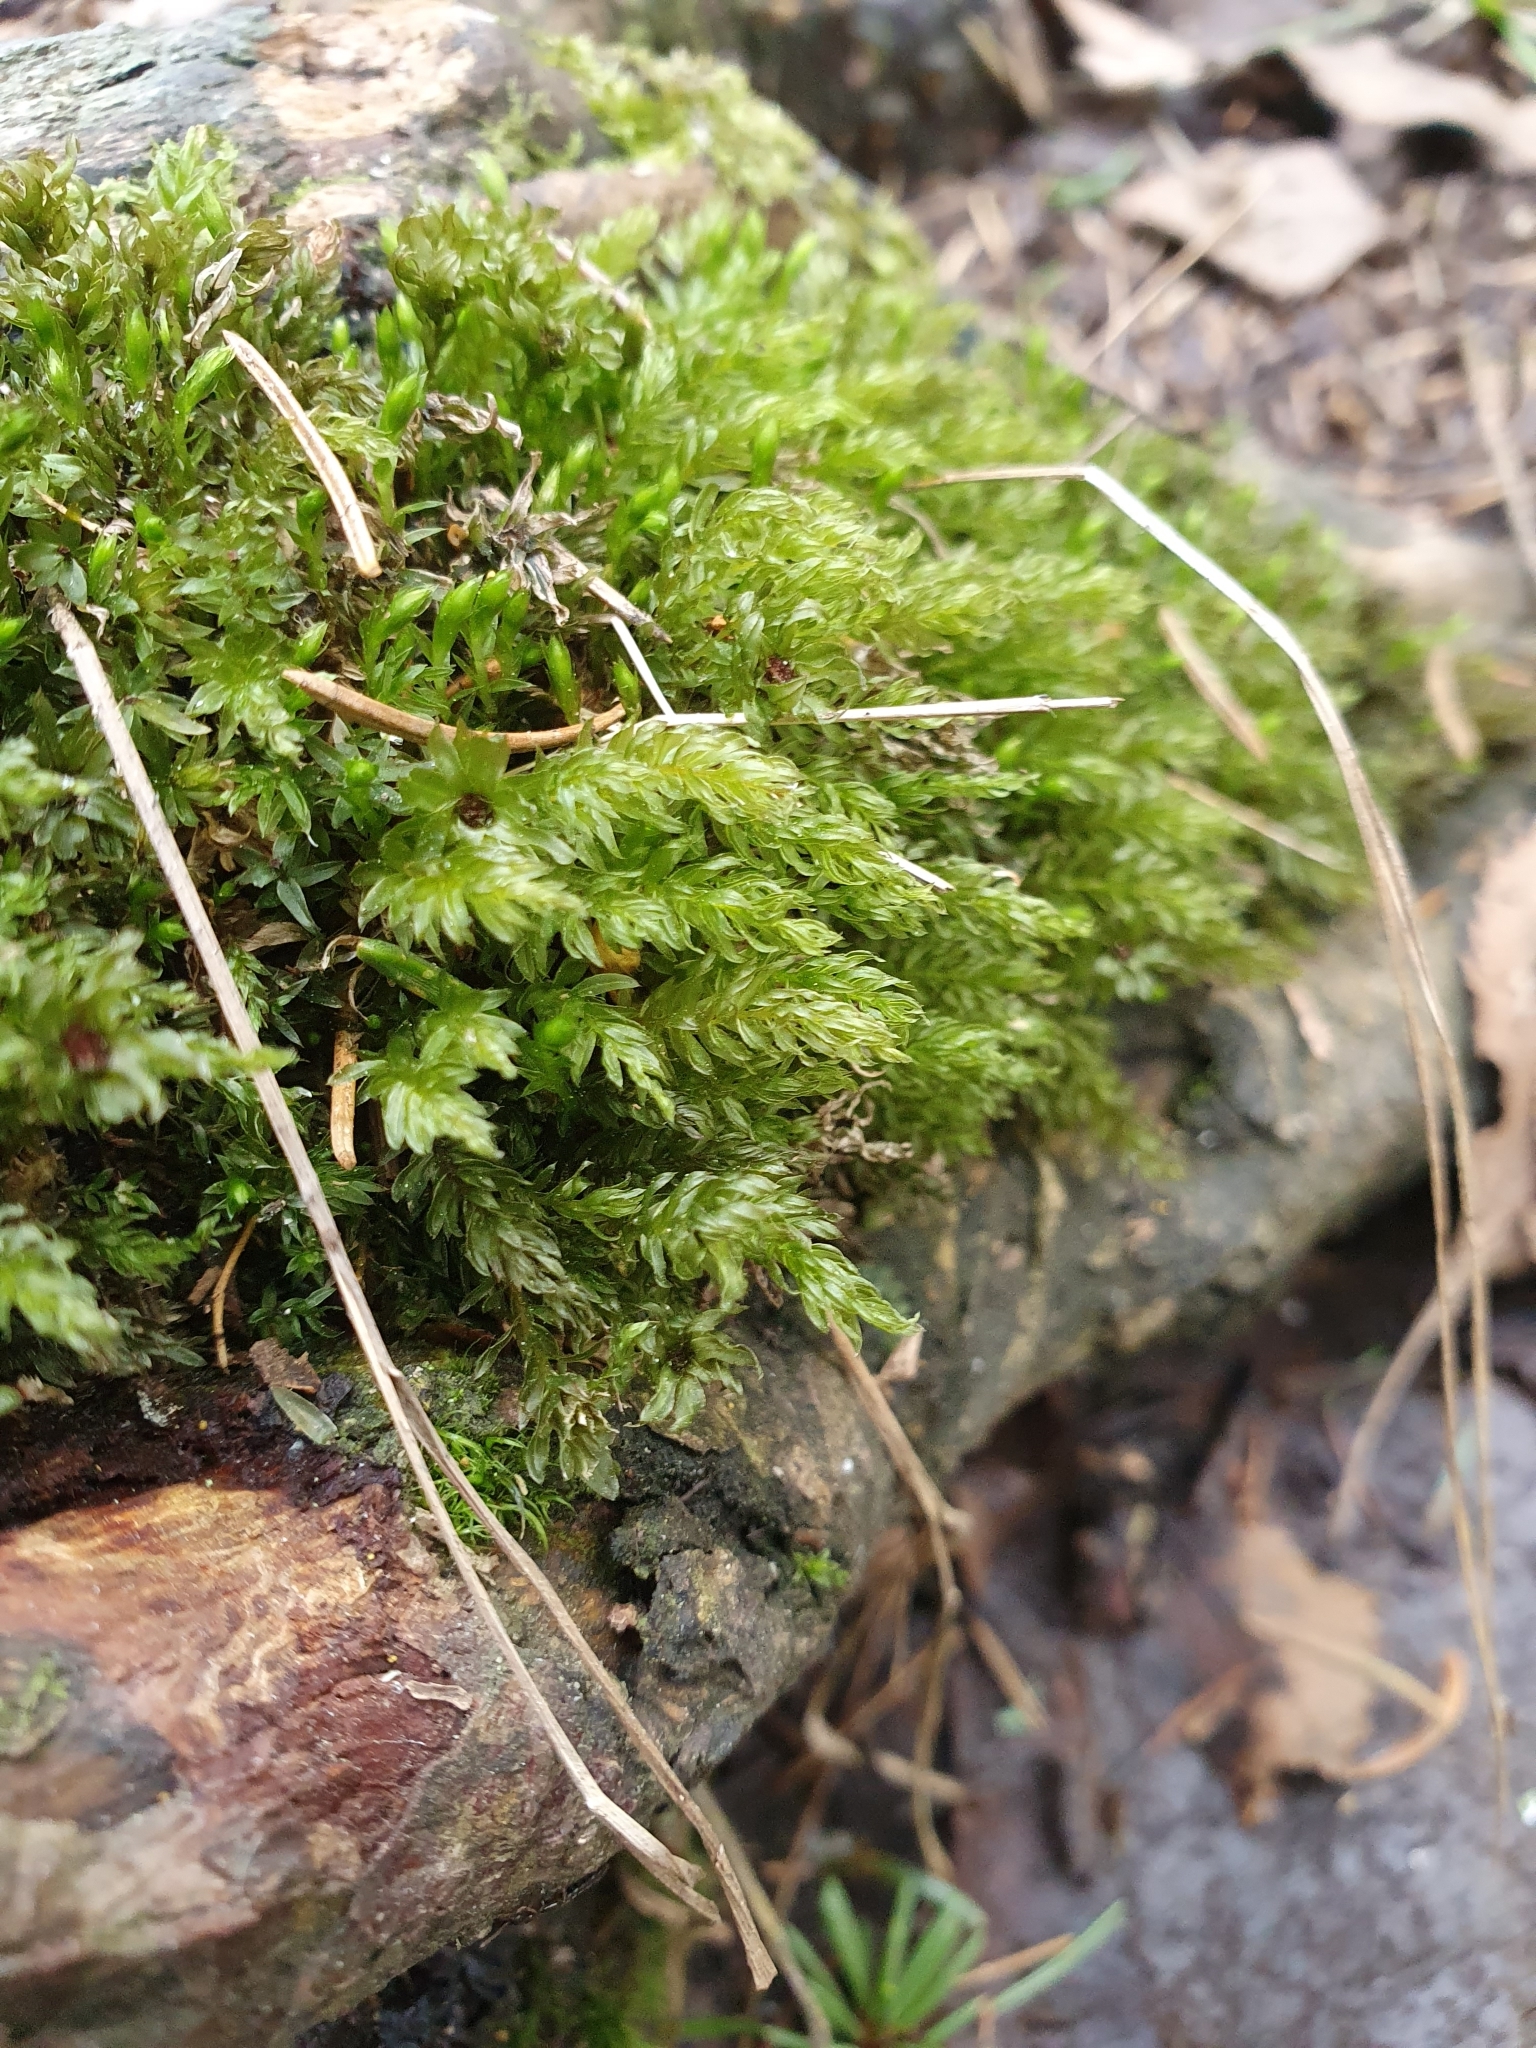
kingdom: Plantae
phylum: Bryophyta
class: Bryopsida
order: Bryales
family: Mniaceae
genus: Mnium
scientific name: Mnium hornum
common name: Swan's-neck leafy moss
